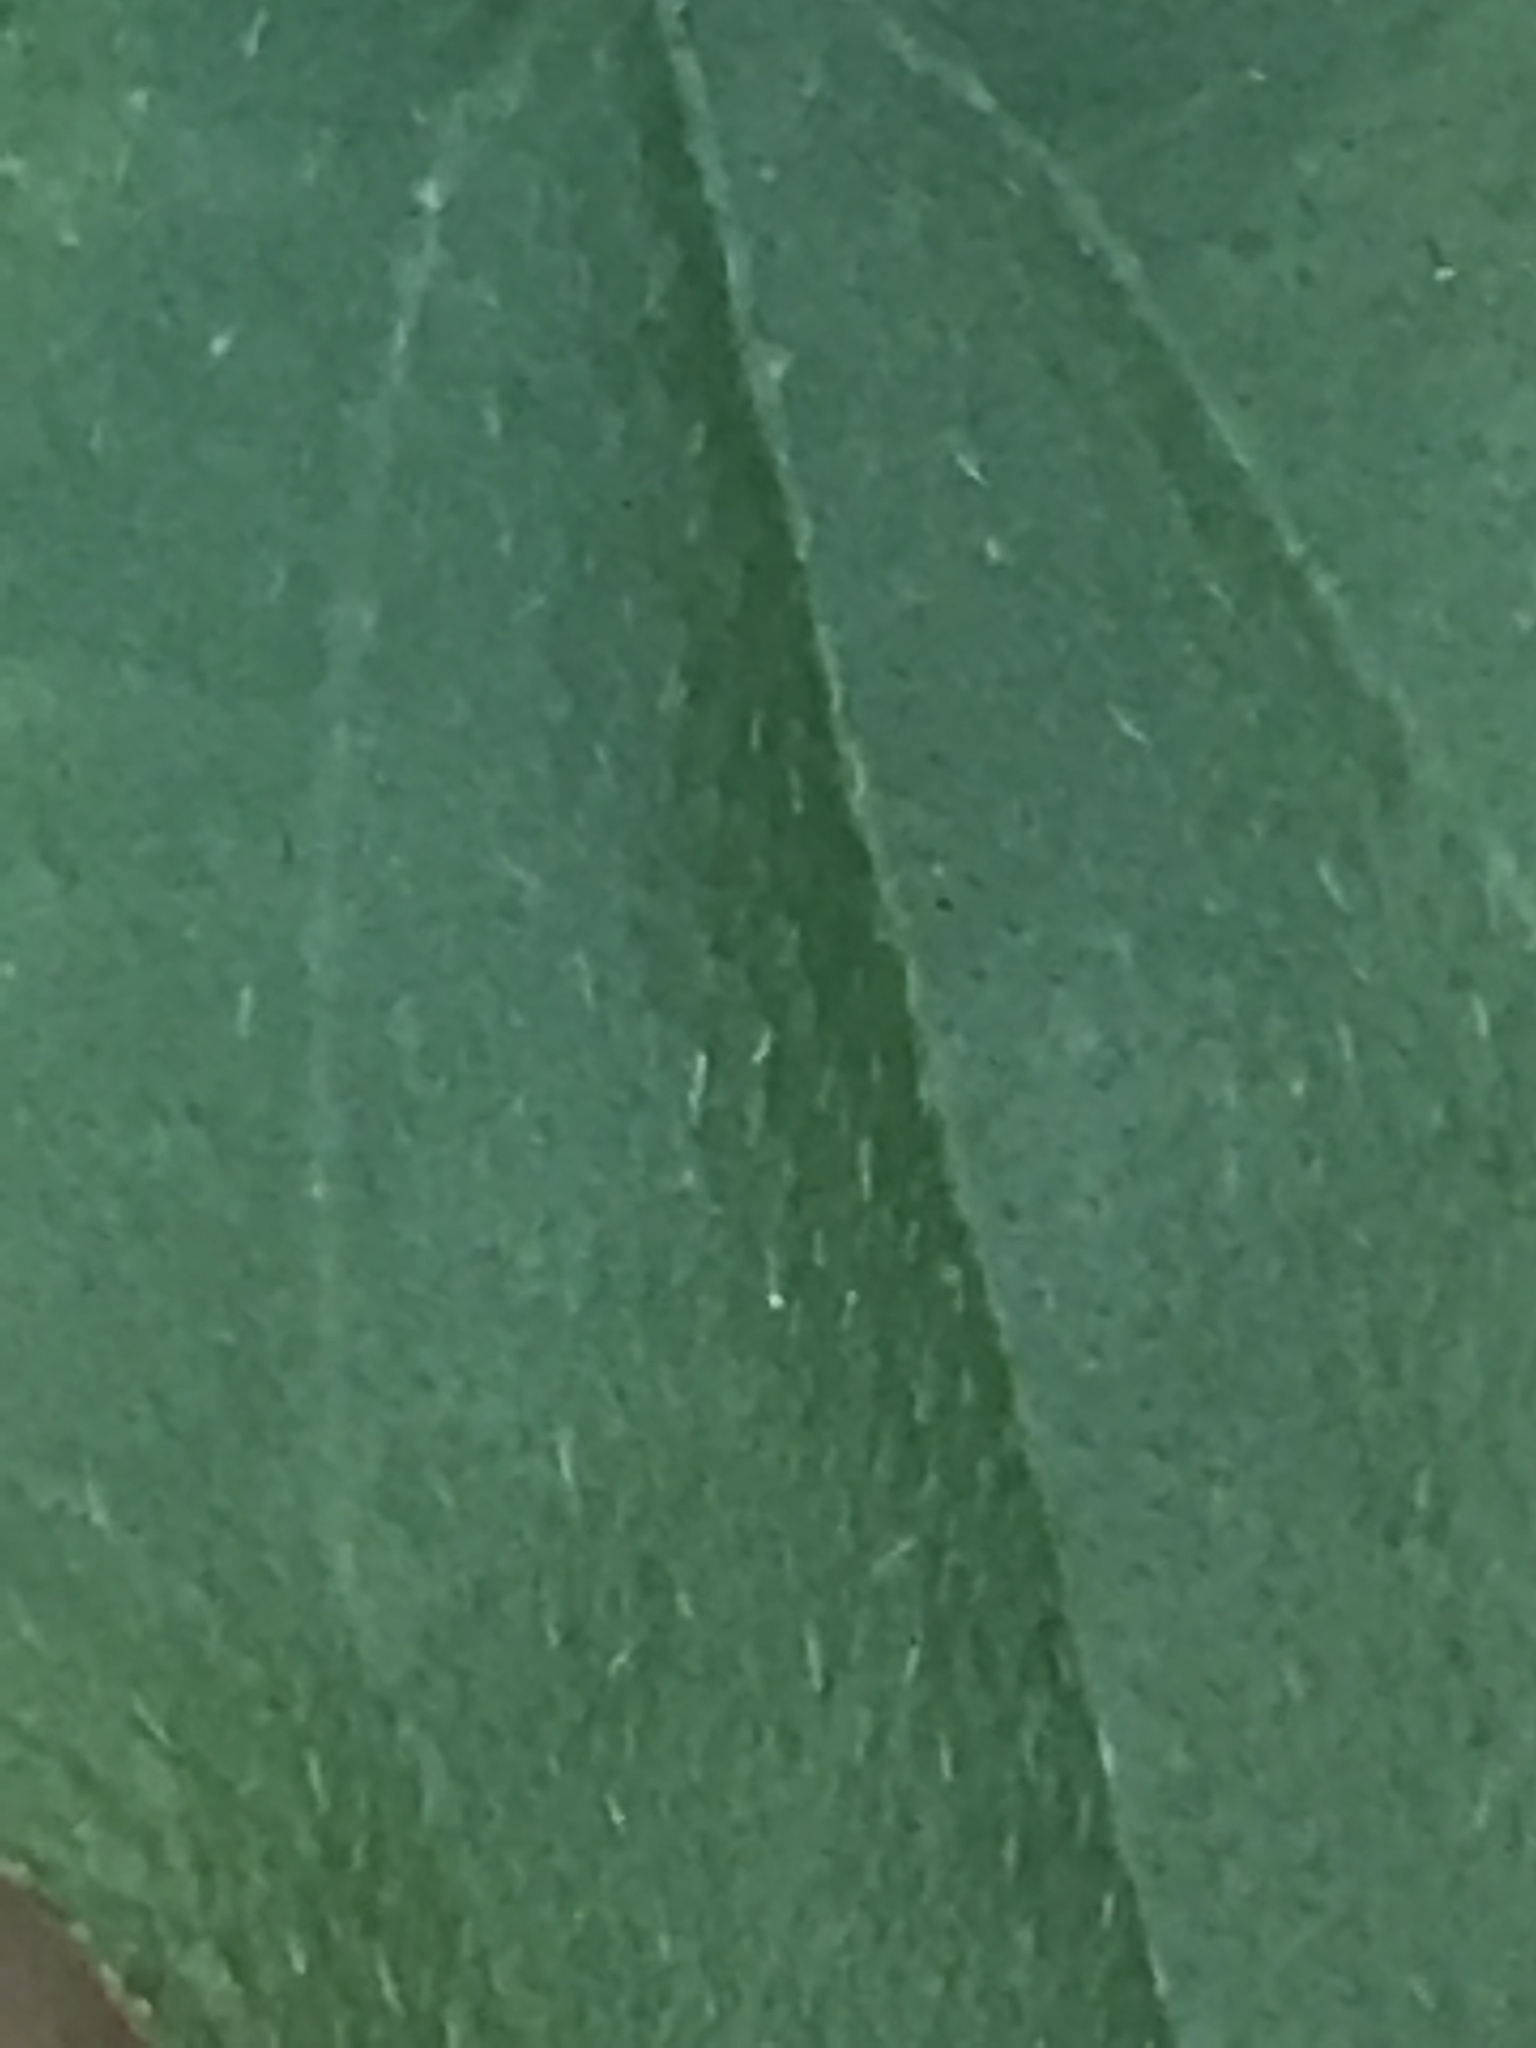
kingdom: Plantae
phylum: Tracheophyta
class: Magnoliopsida
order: Cornales
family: Cornaceae
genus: Cornus
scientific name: Cornus foemina
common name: Swamp dogwood
